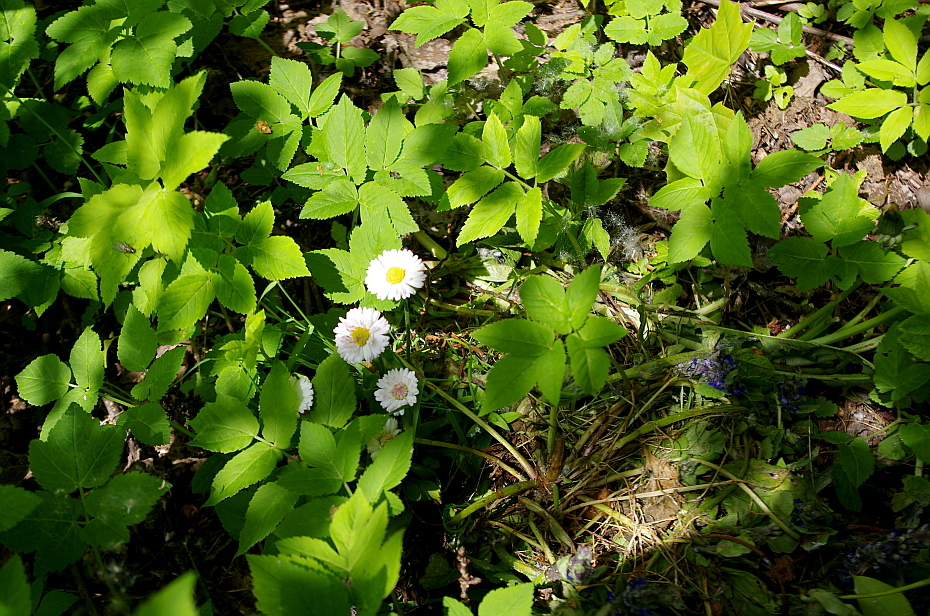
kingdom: Plantae
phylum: Tracheophyta
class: Magnoliopsida
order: Asterales
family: Asteraceae
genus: Bellis
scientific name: Bellis perennis
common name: Lawndaisy
